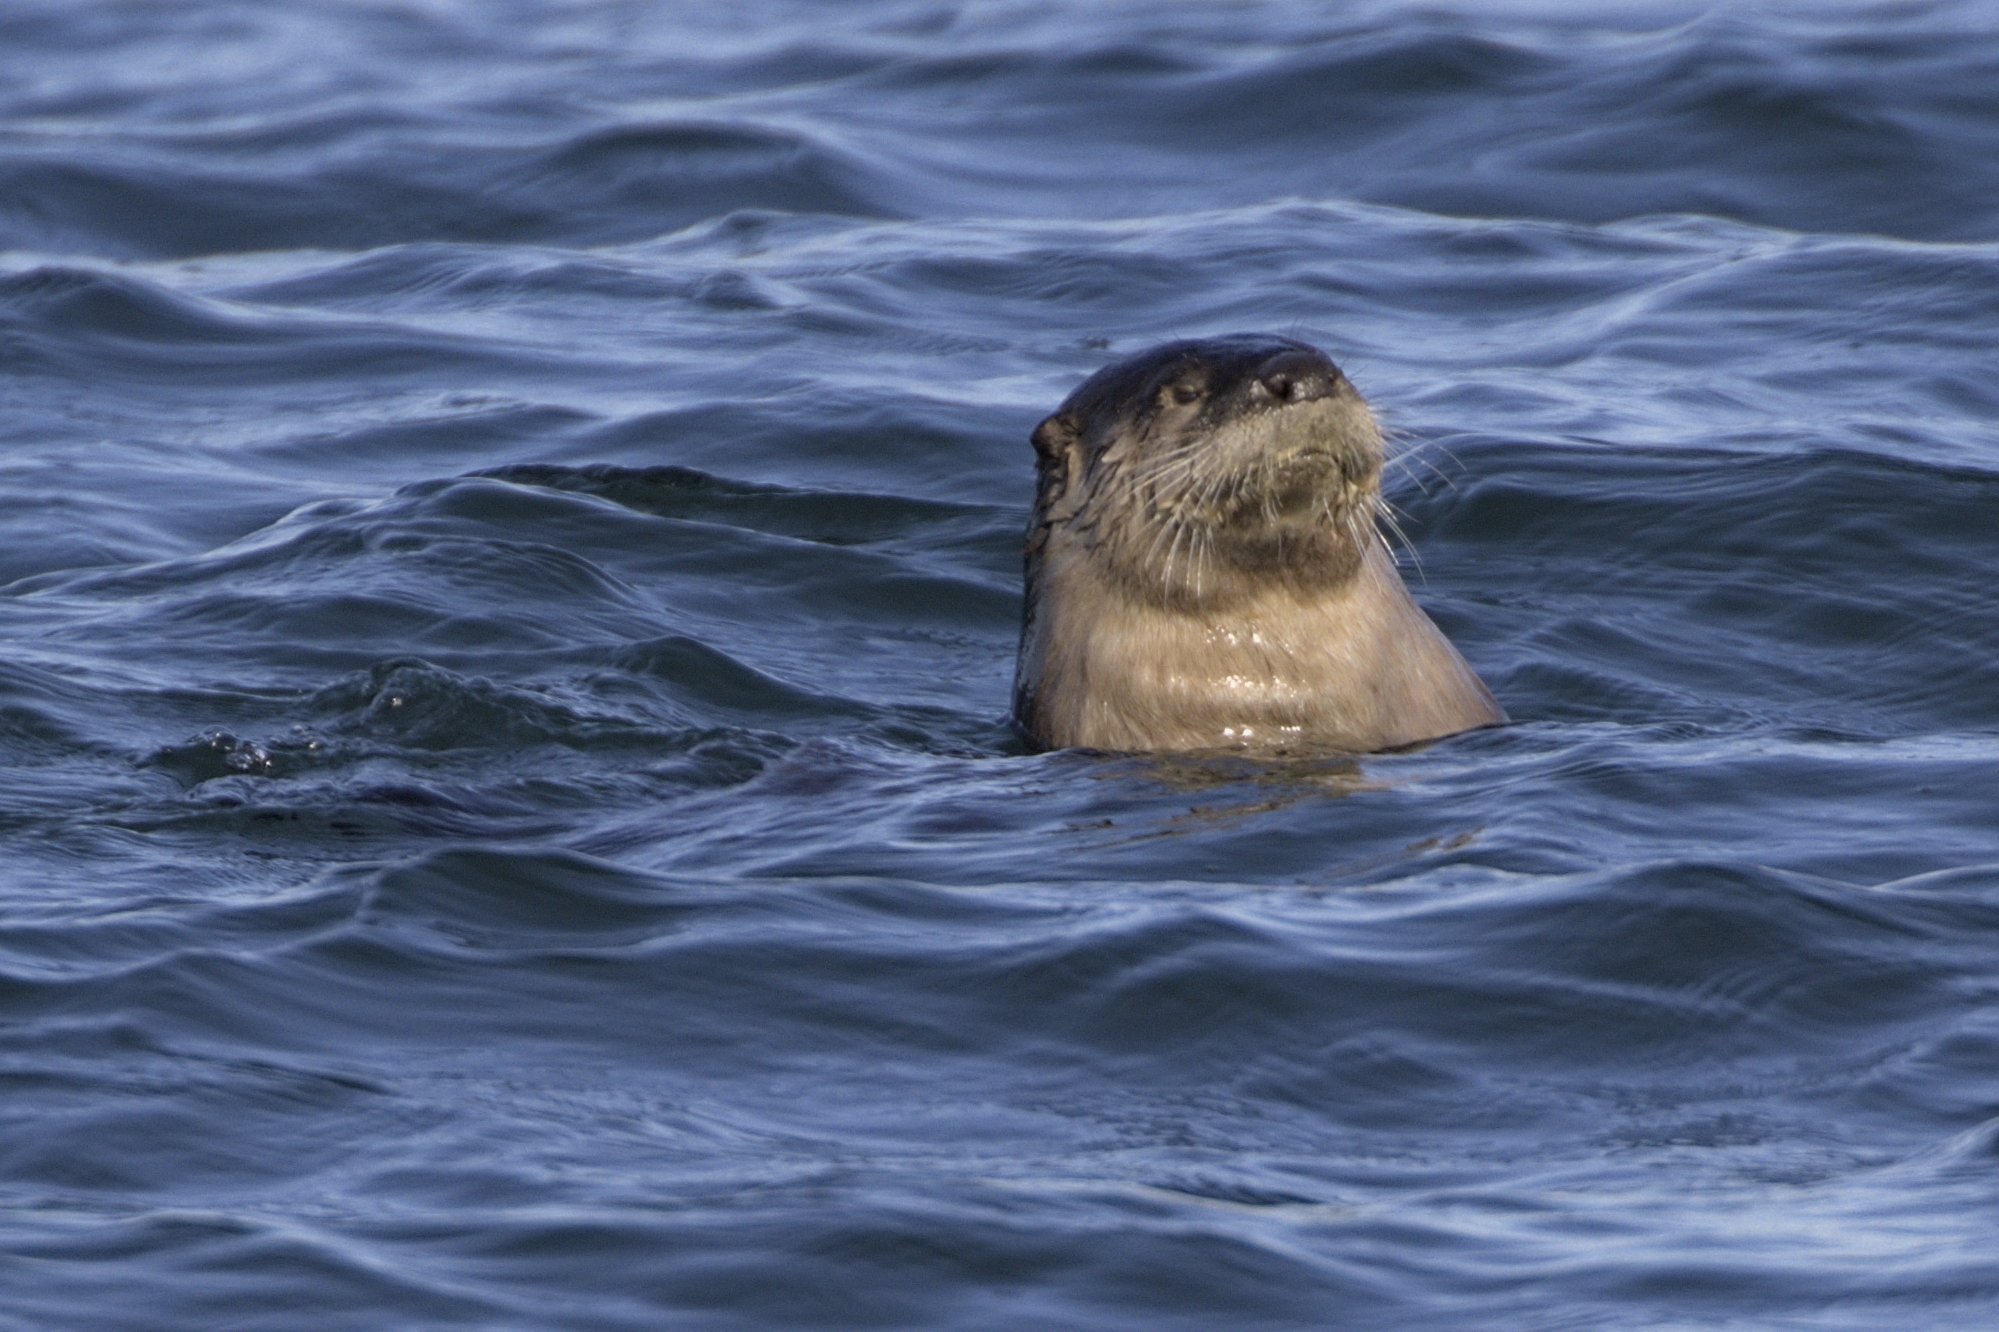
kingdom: Animalia
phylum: Chordata
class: Mammalia
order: Carnivora
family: Mustelidae
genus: Lontra
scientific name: Lontra canadensis
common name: North american river otter
